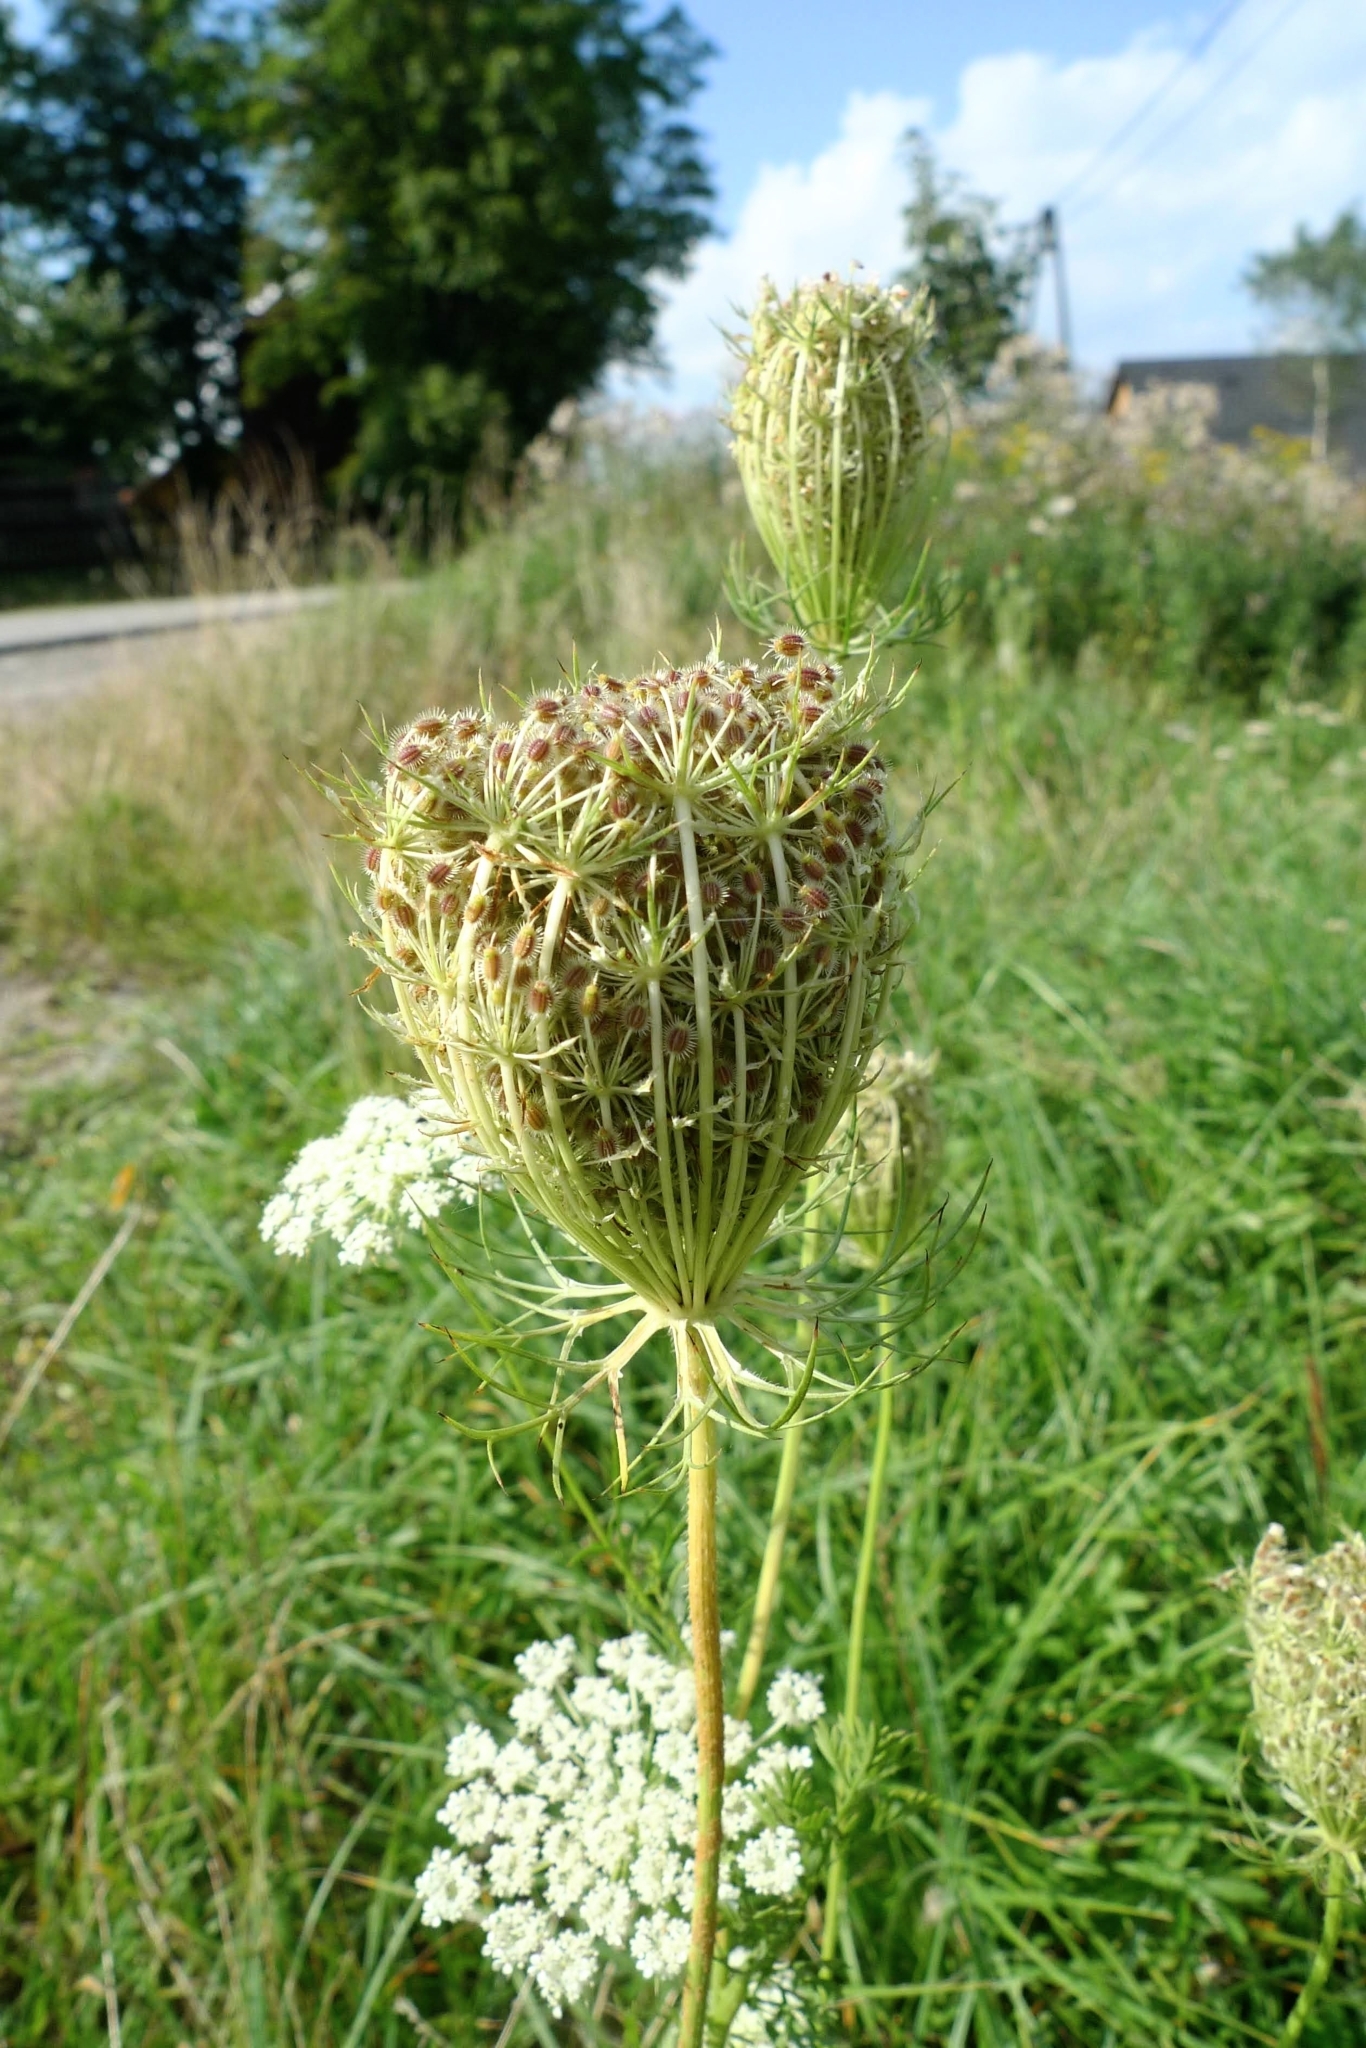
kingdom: Plantae
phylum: Tracheophyta
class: Magnoliopsida
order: Apiales
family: Apiaceae
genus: Daucus
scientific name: Daucus carota
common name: Wild carrot
